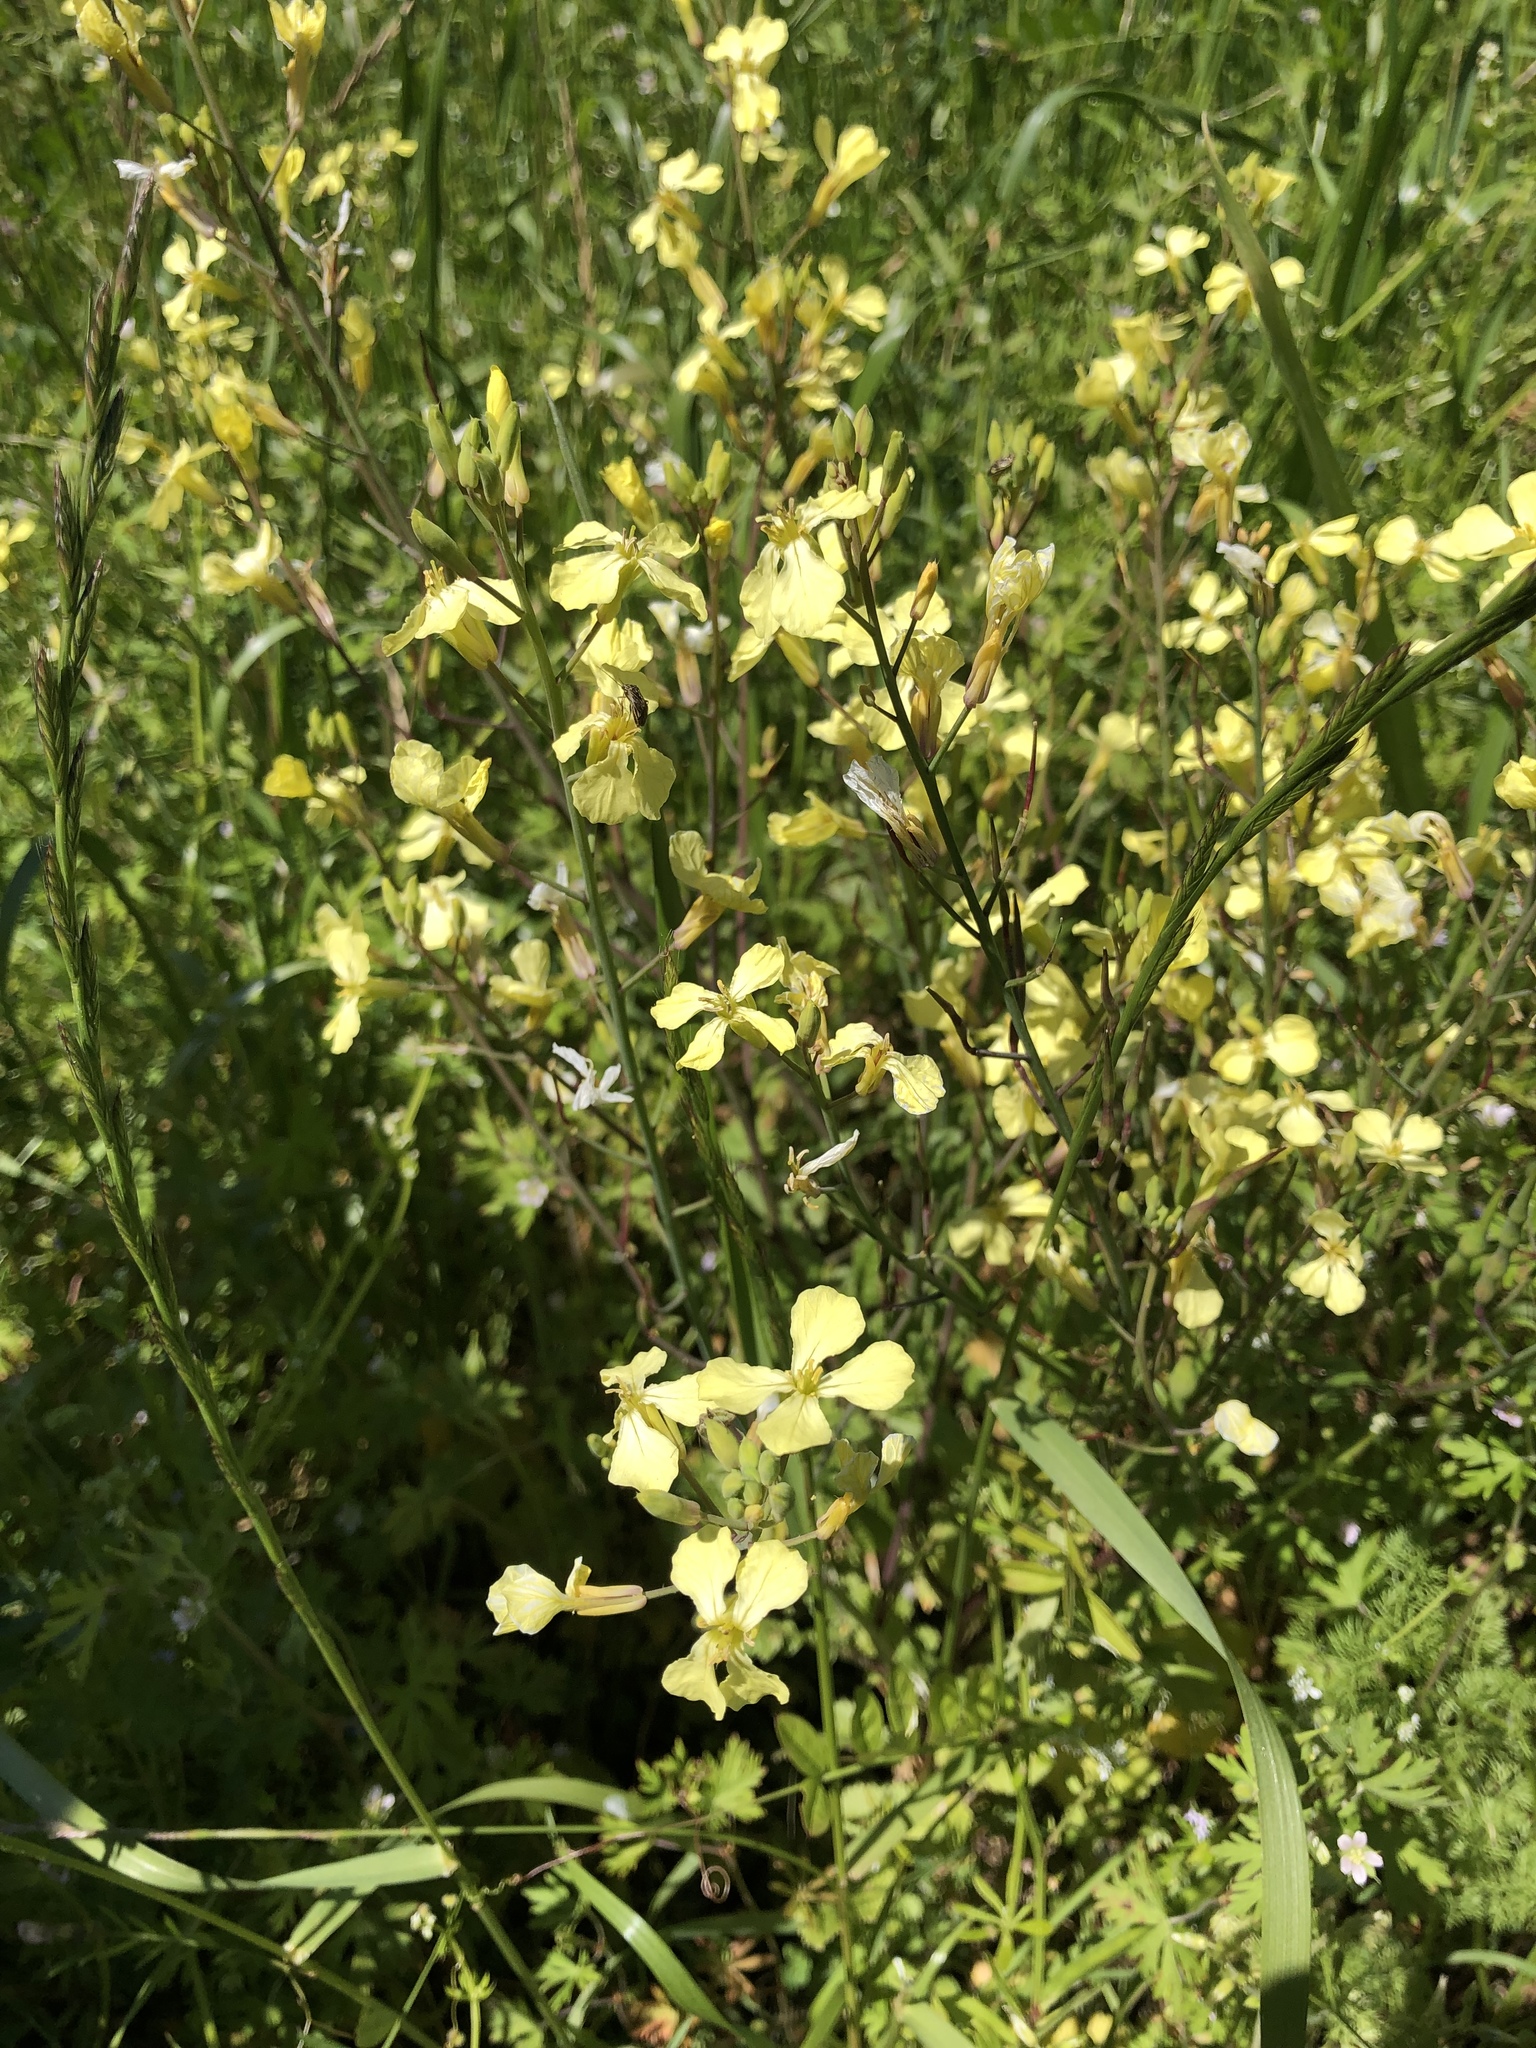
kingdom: Plantae
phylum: Tracheophyta
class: Magnoliopsida
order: Brassicales
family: Brassicaceae
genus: Raphanus
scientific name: Raphanus raphanistrum
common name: Wild radish
